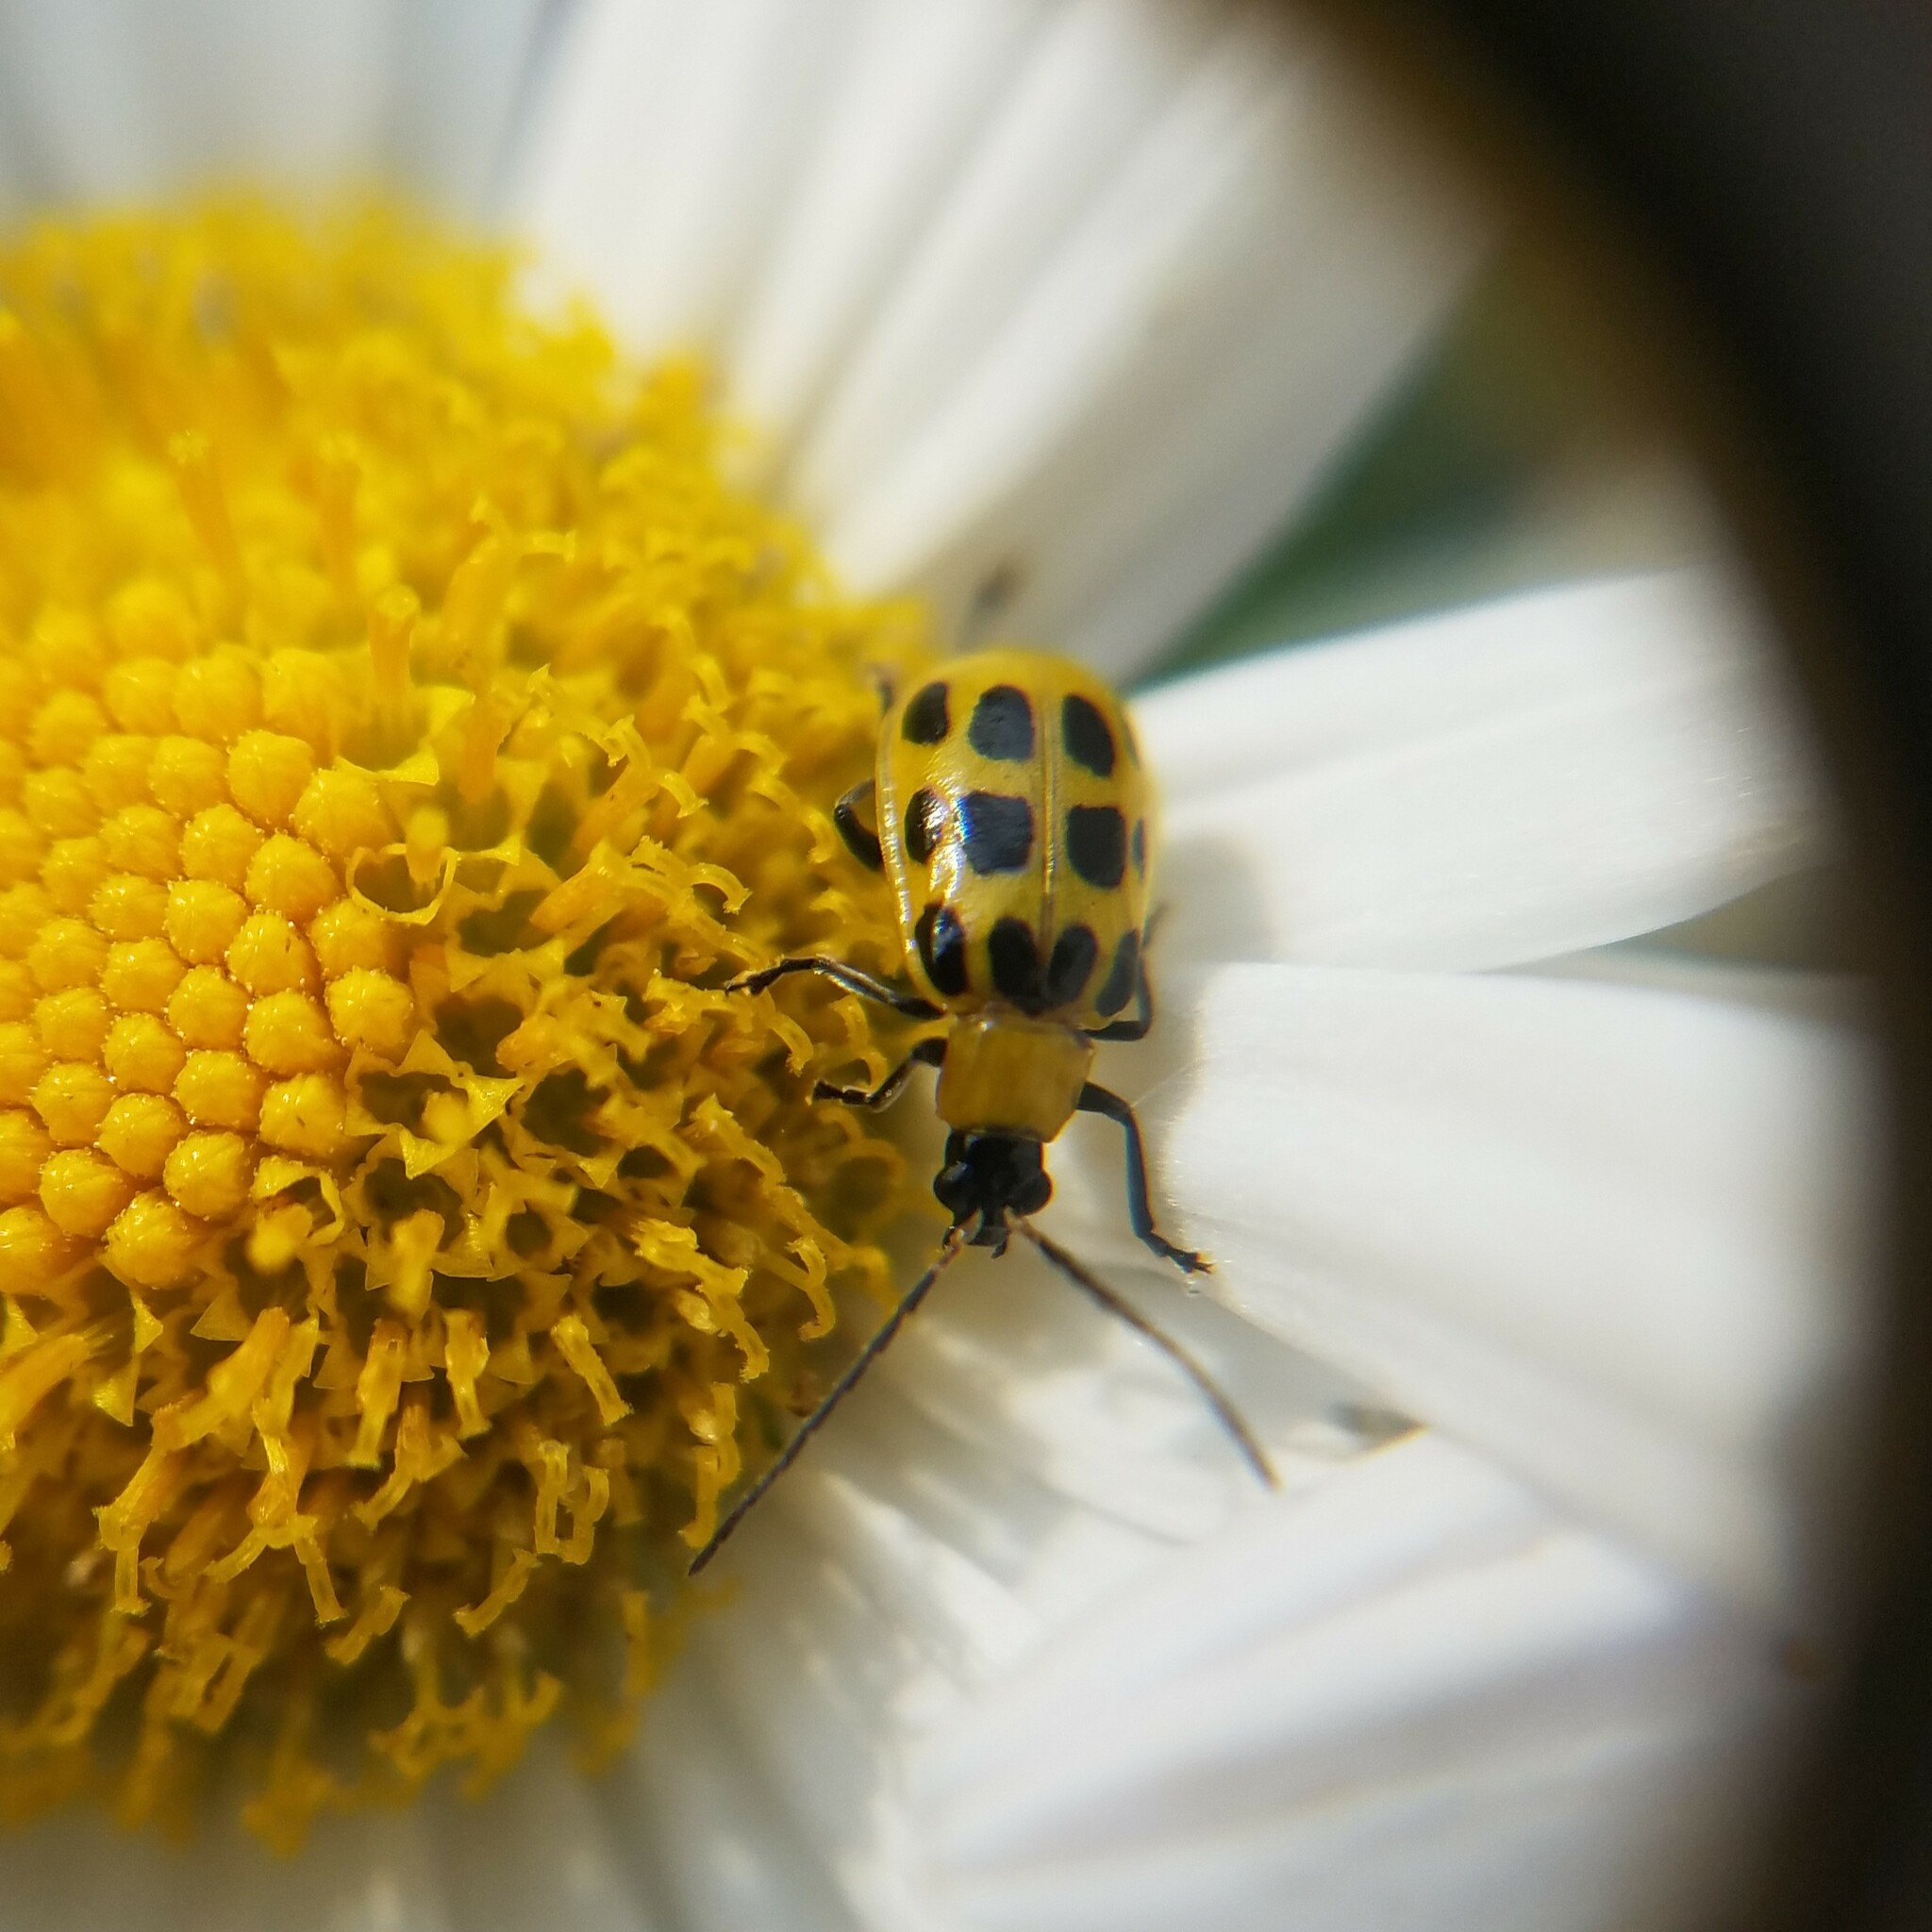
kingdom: Animalia
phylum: Arthropoda
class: Insecta
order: Coleoptera
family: Chrysomelidae
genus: Diabrotica
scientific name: Diabrotica undecimpunctata
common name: Spotted cucumber beetle
